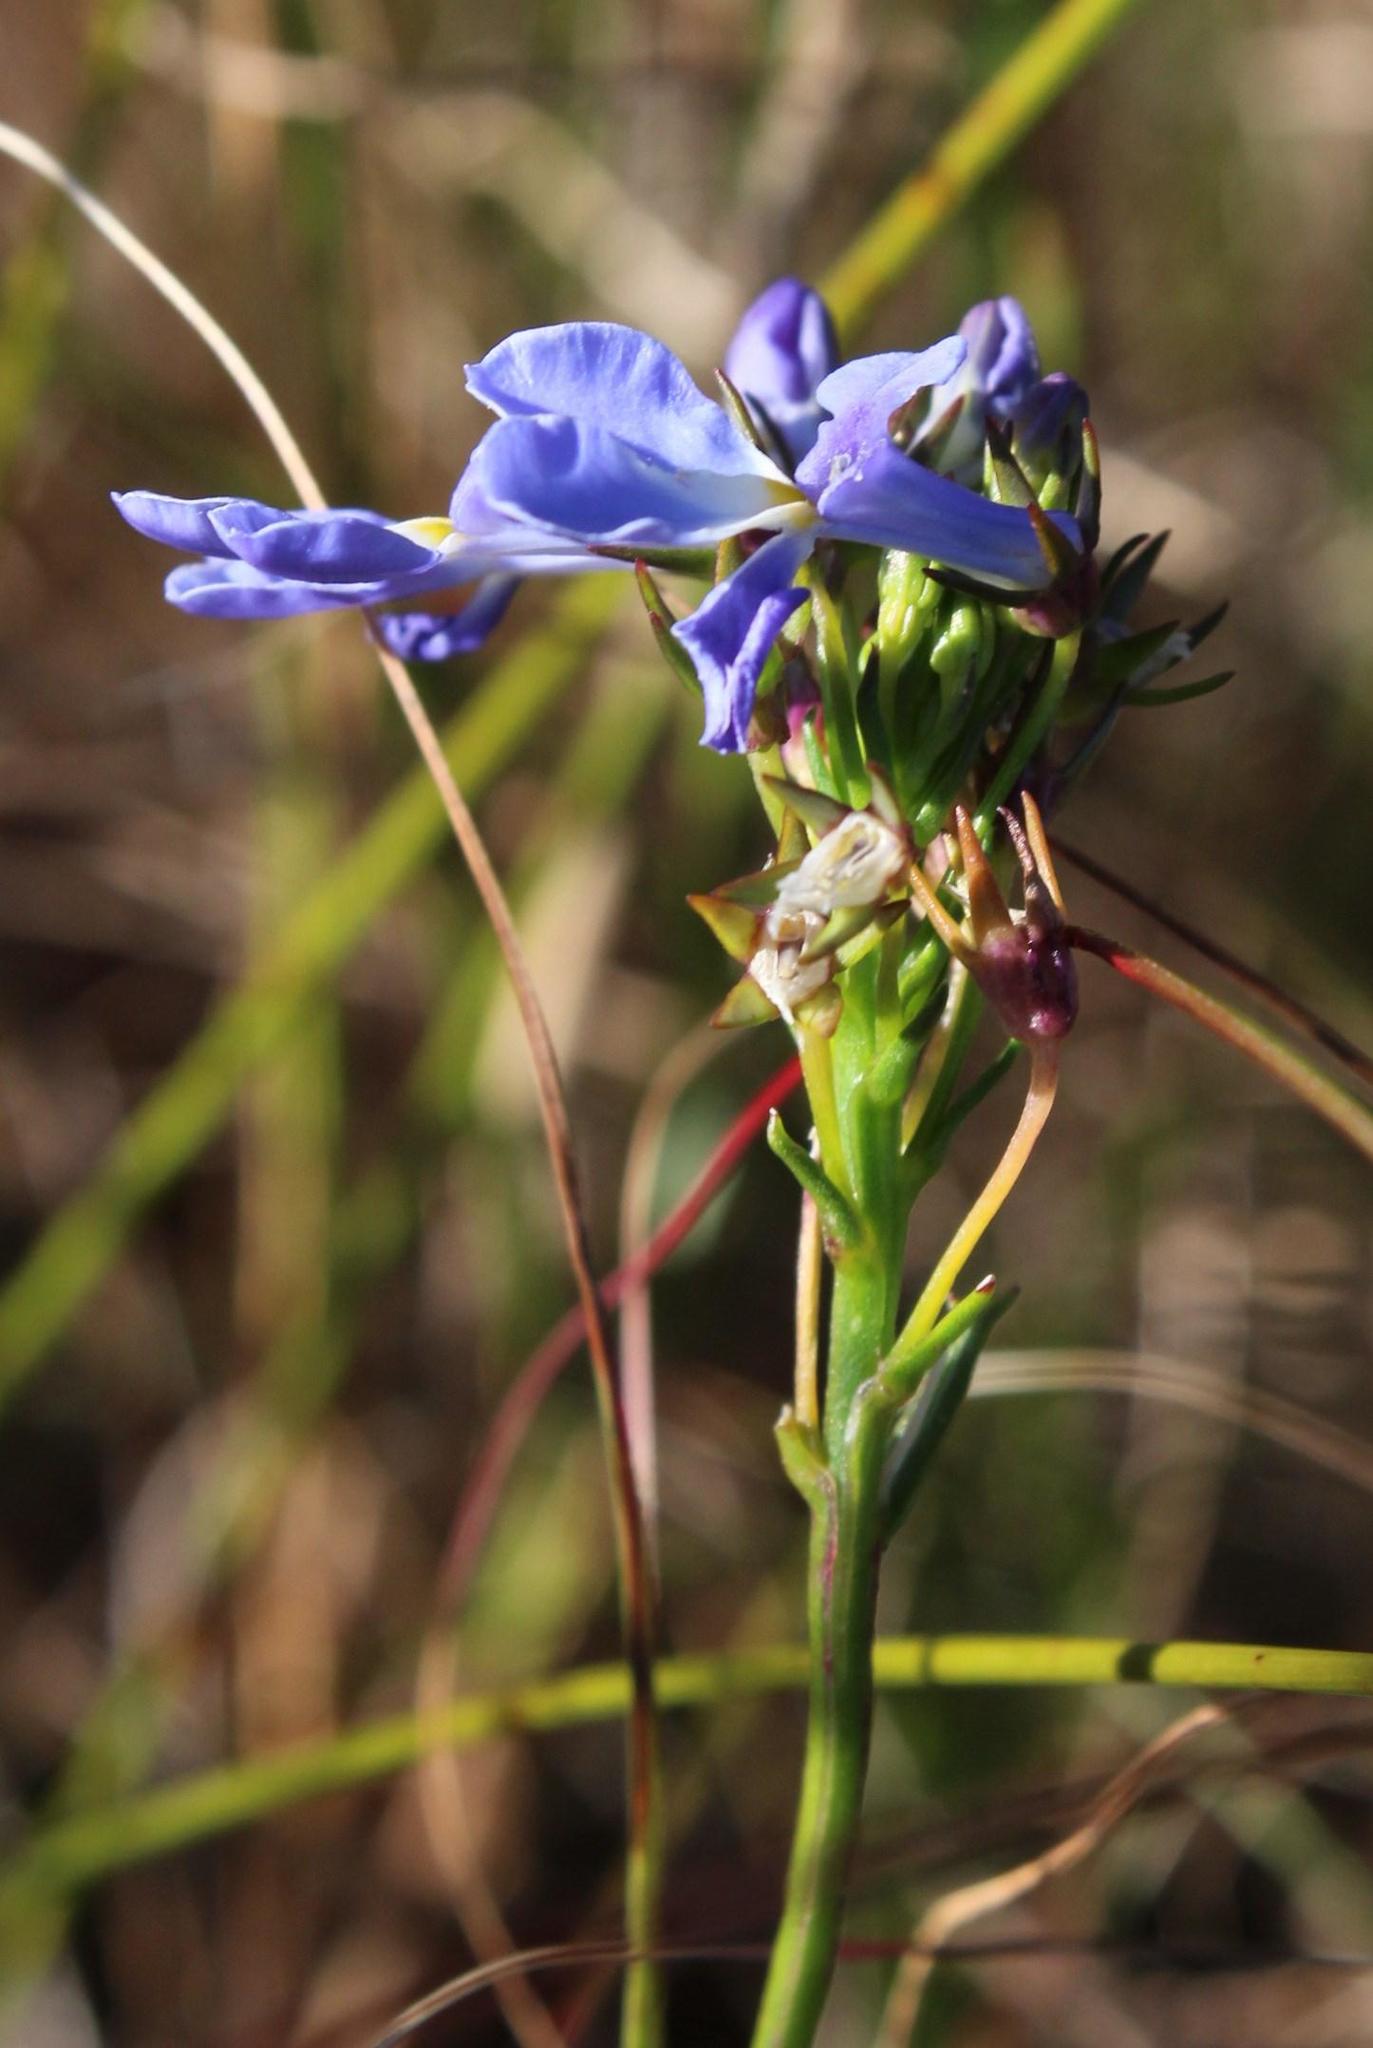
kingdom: Plantae
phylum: Tracheophyta
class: Magnoliopsida
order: Asterales
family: Campanulaceae
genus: Lobelia
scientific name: Lobelia comosa
